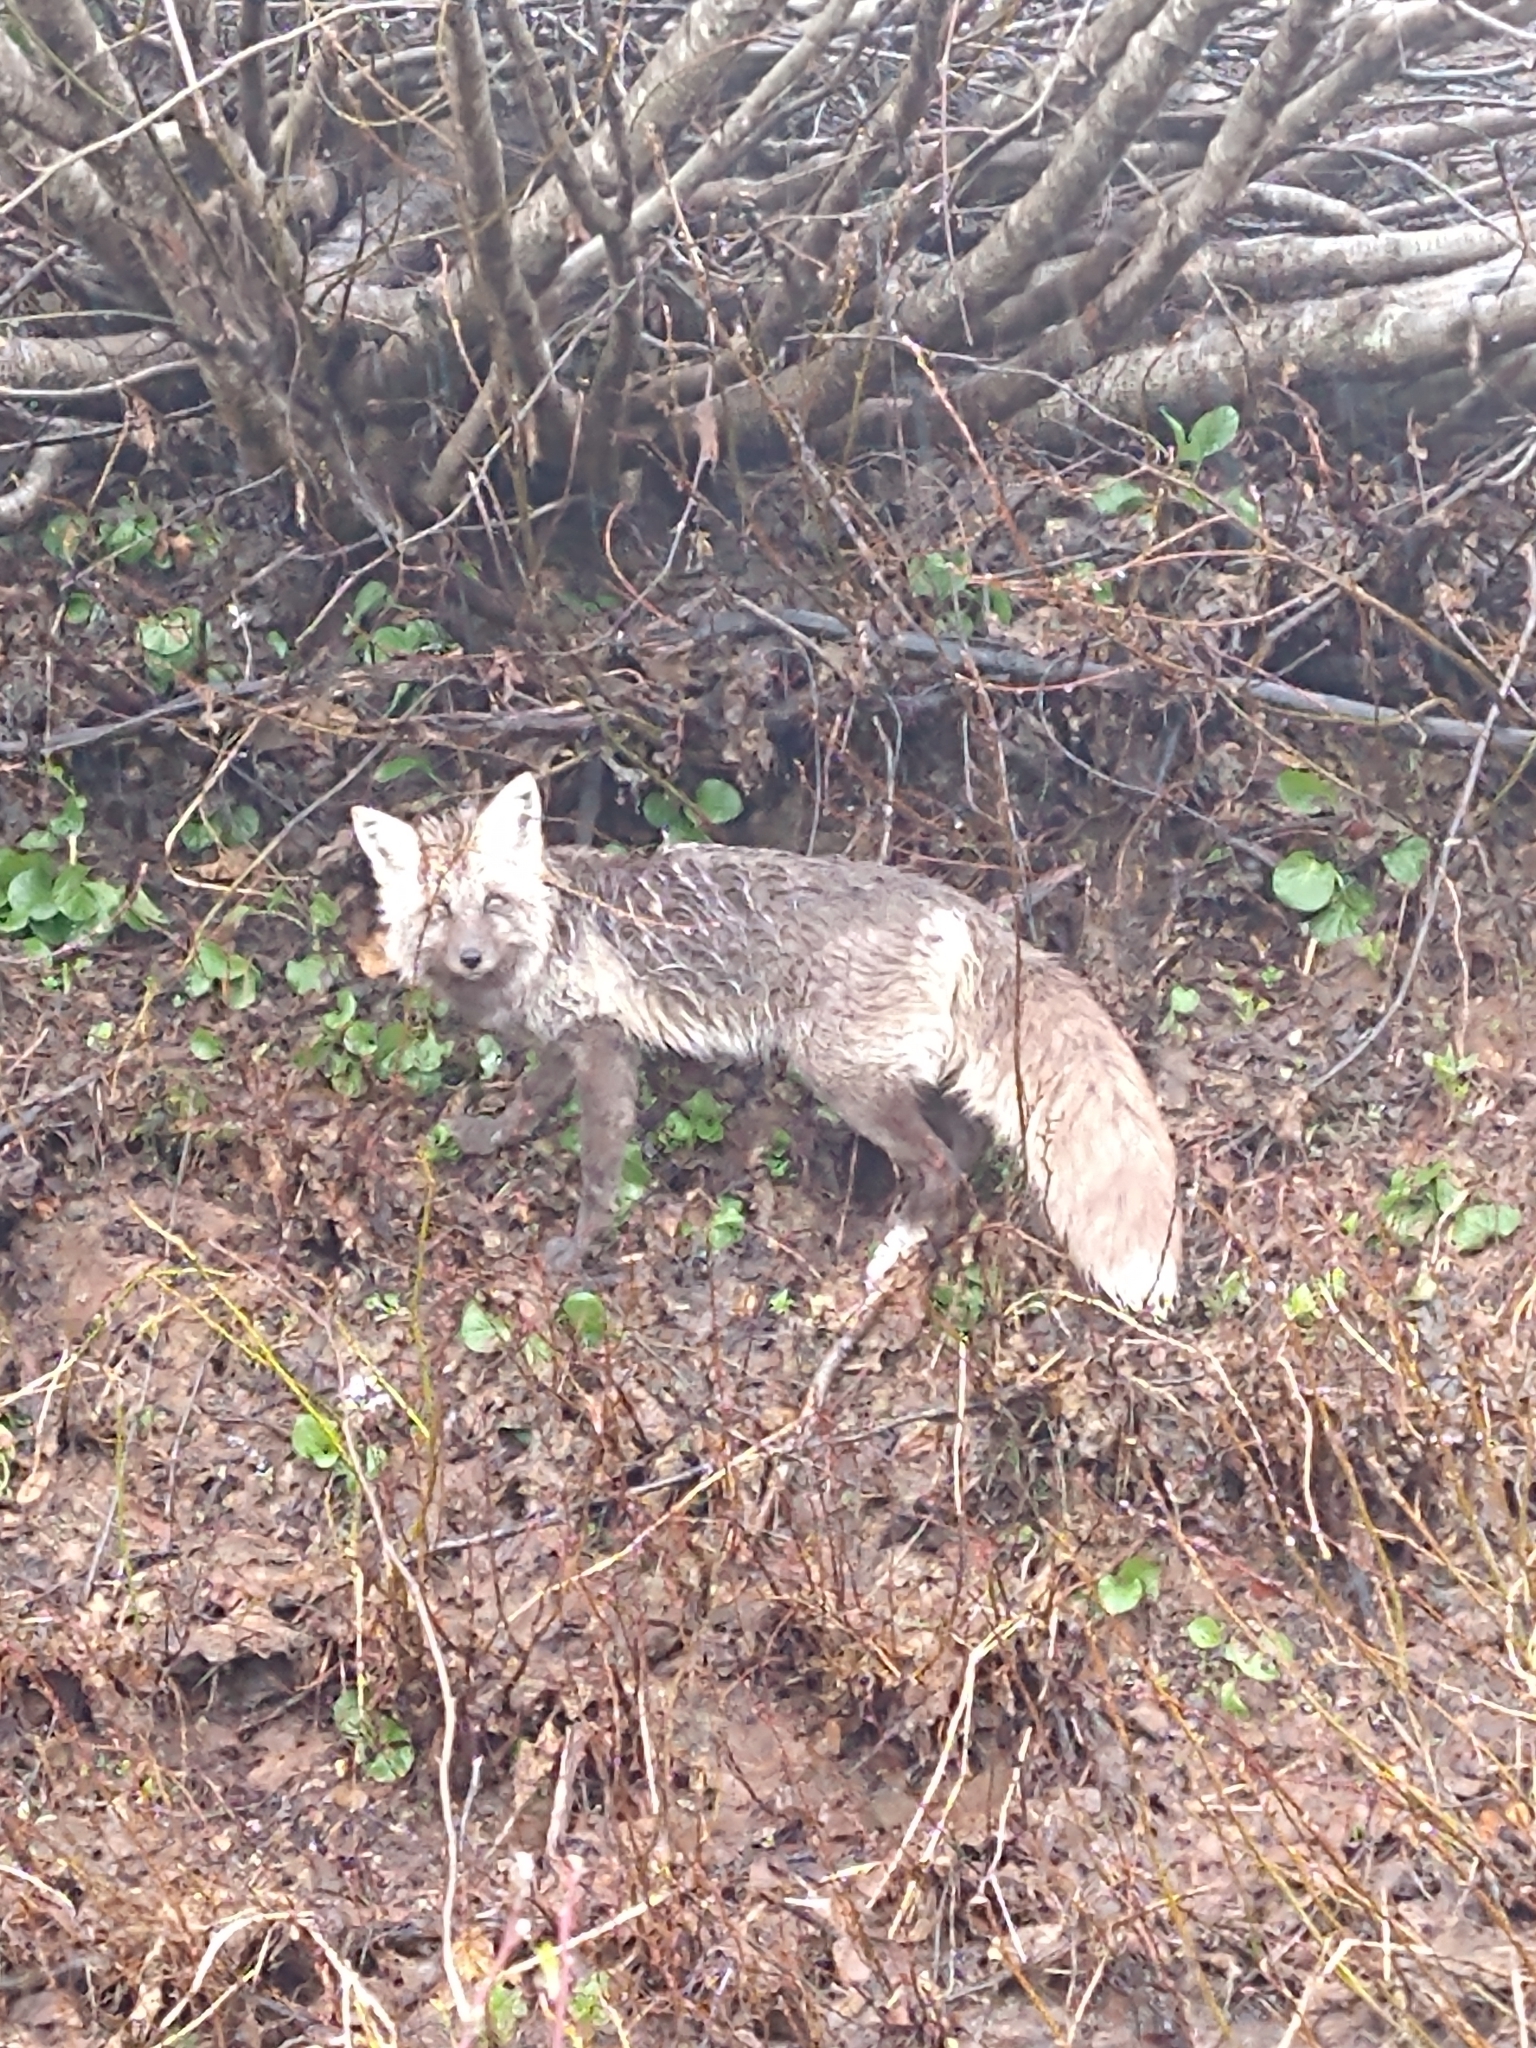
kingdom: Animalia
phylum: Chordata
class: Mammalia
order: Carnivora
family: Canidae
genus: Vulpes
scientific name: Vulpes vulpes
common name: Red fox
